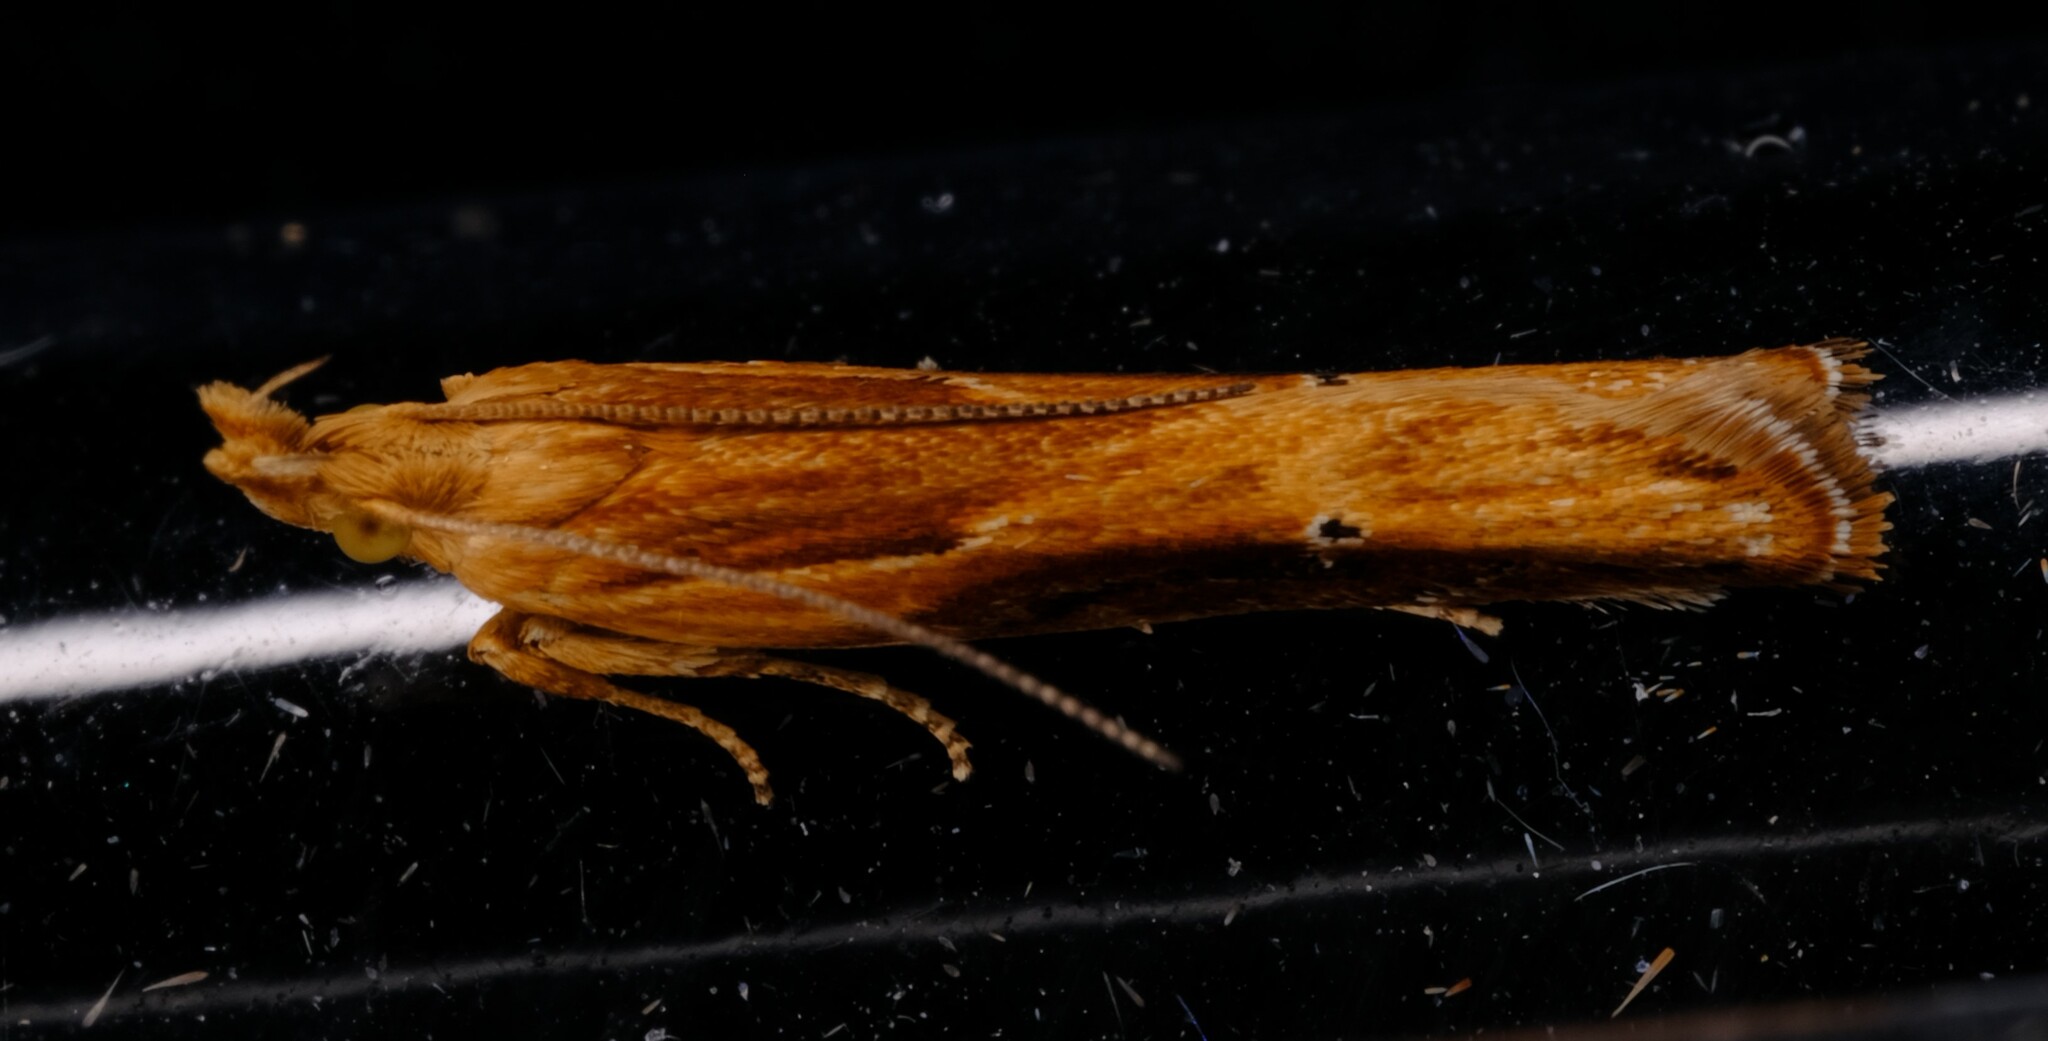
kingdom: Animalia
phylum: Arthropoda
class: Insecta
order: Lepidoptera
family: Depressariidae
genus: Eutorna
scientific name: Eutorna tricasis
